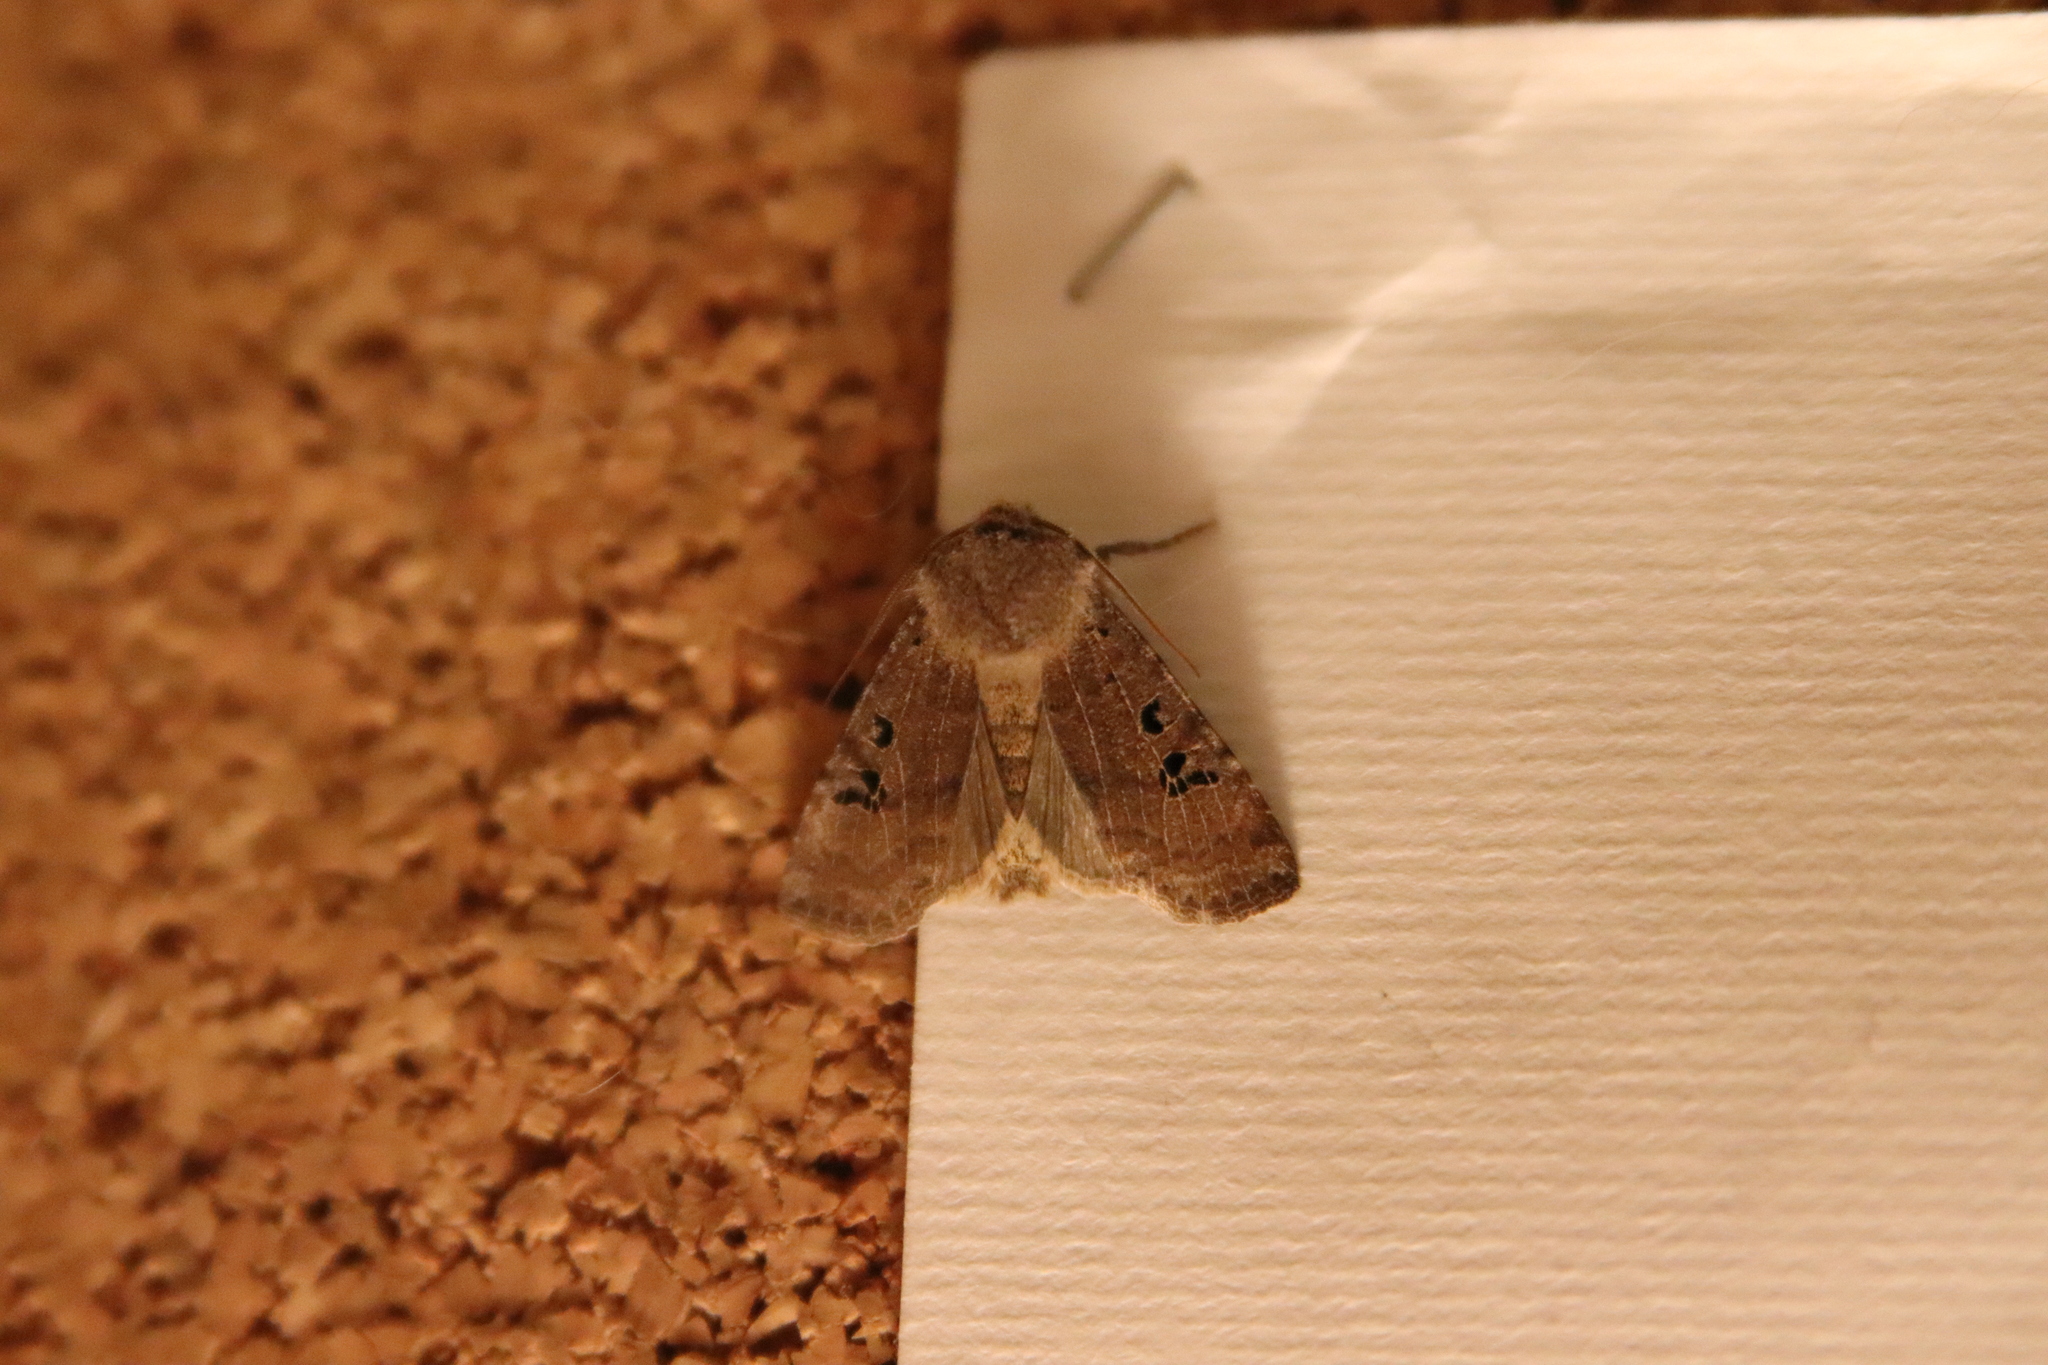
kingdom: Animalia
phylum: Arthropoda
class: Insecta
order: Lepidoptera
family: Noctuidae
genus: Conistra
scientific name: Conistra rubiginosa
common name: Black-spotted chestnut
